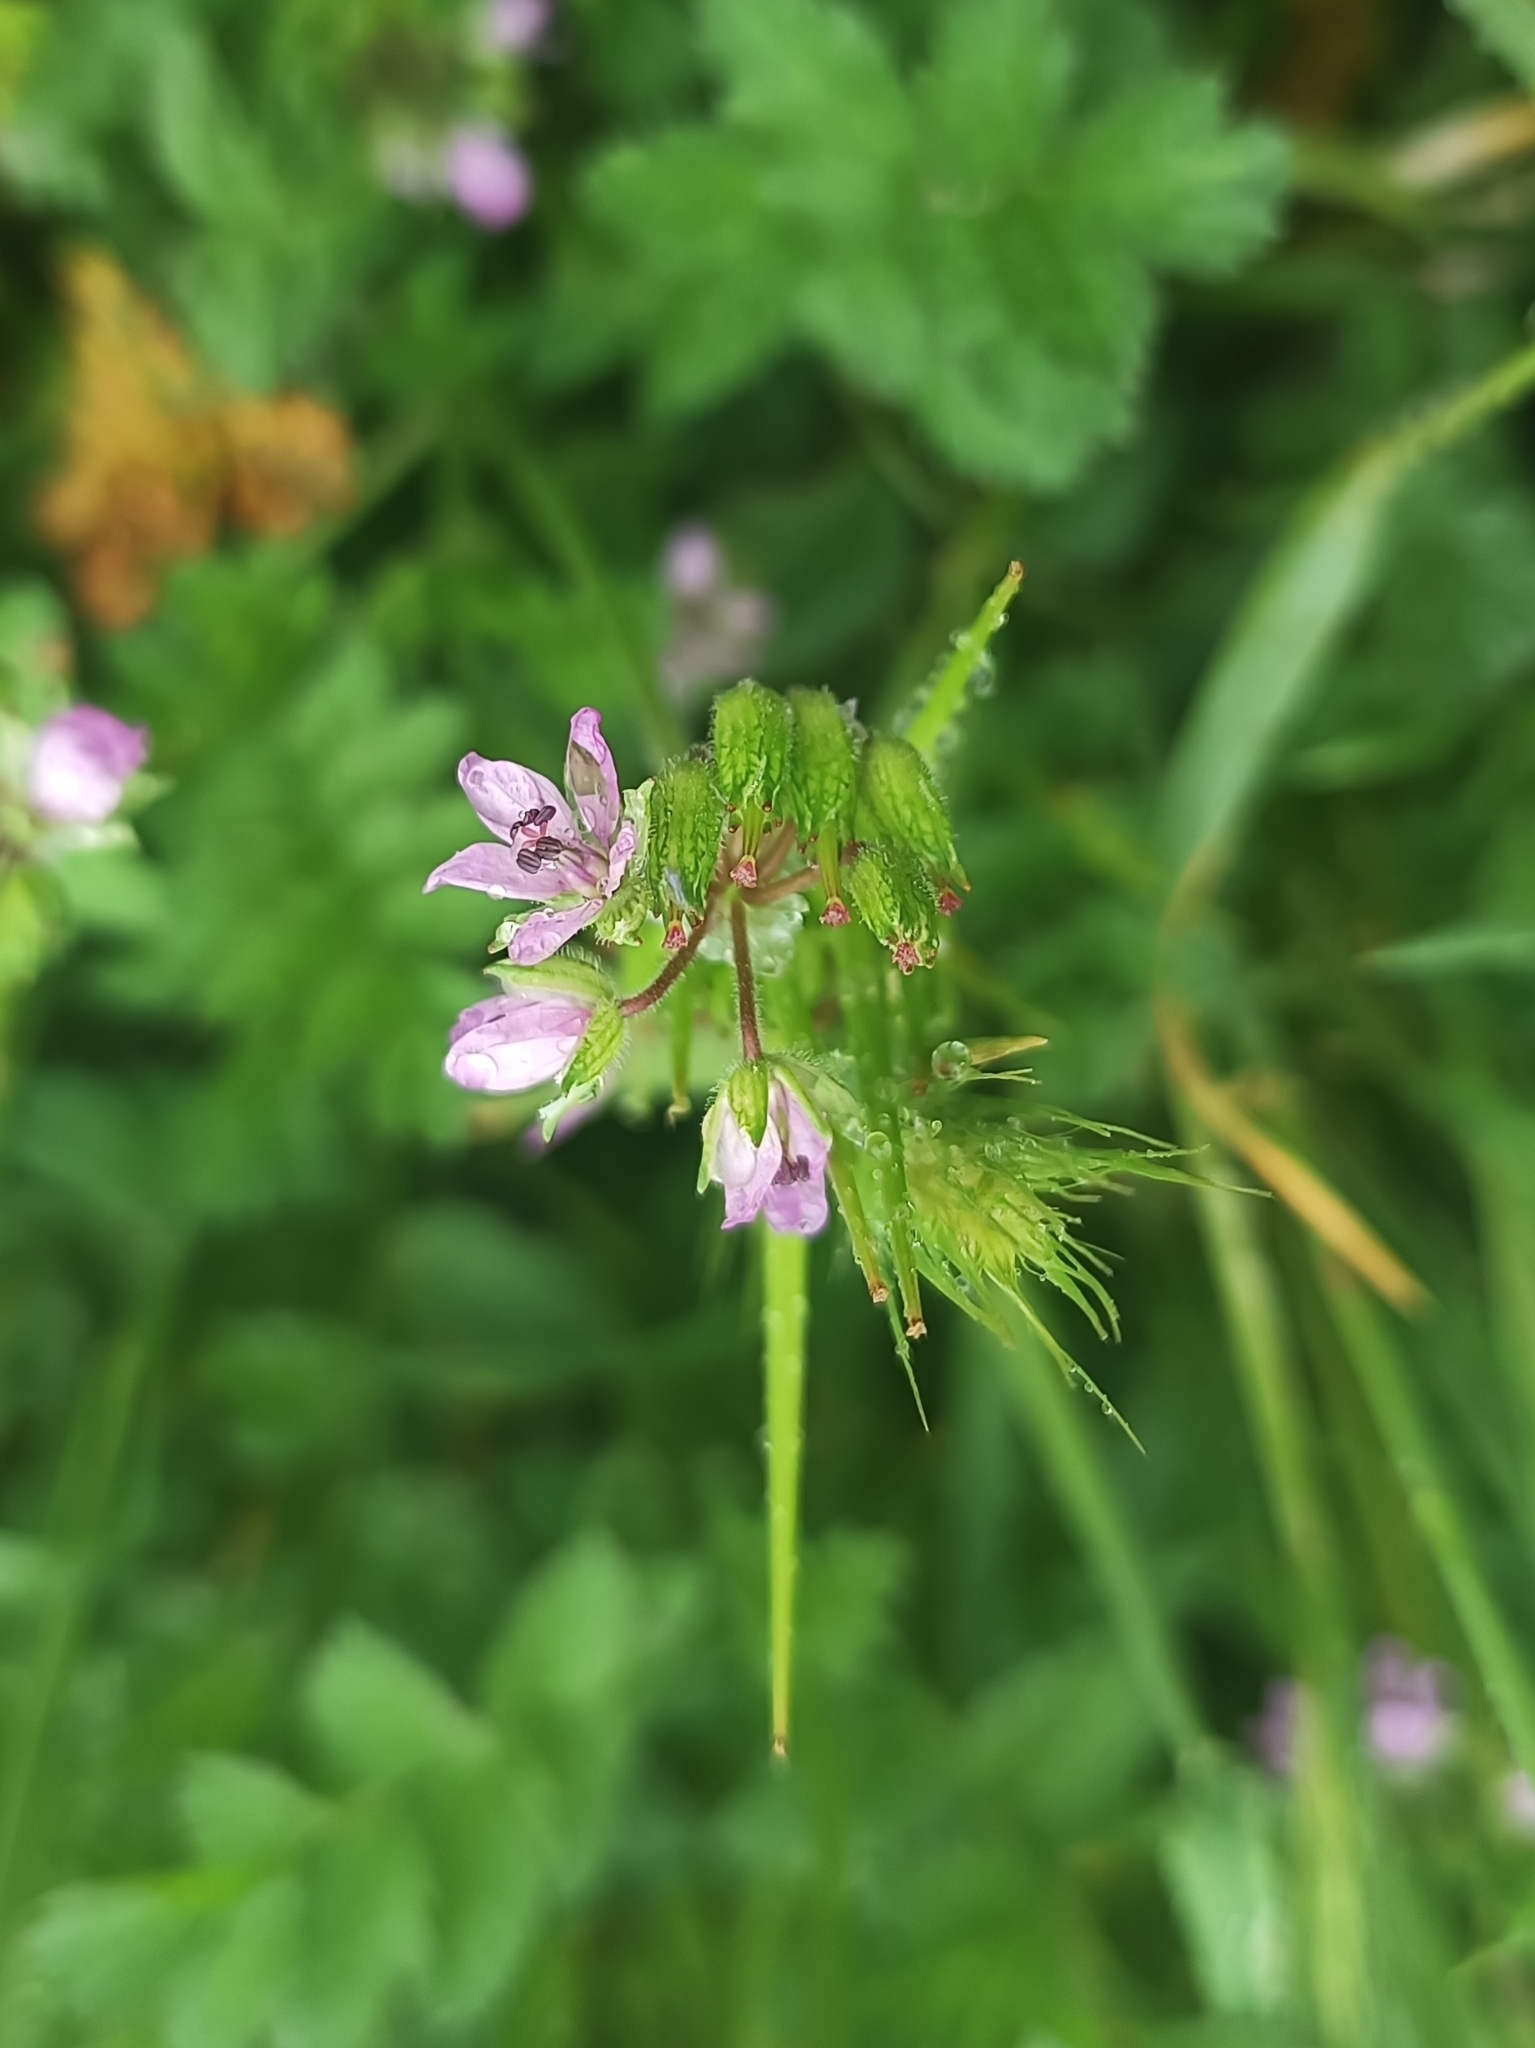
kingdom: Plantae
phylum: Tracheophyta
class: Magnoliopsida
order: Geraniales
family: Geraniaceae
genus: Erodium
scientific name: Erodium moschatum
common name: Musk stork's-bill
